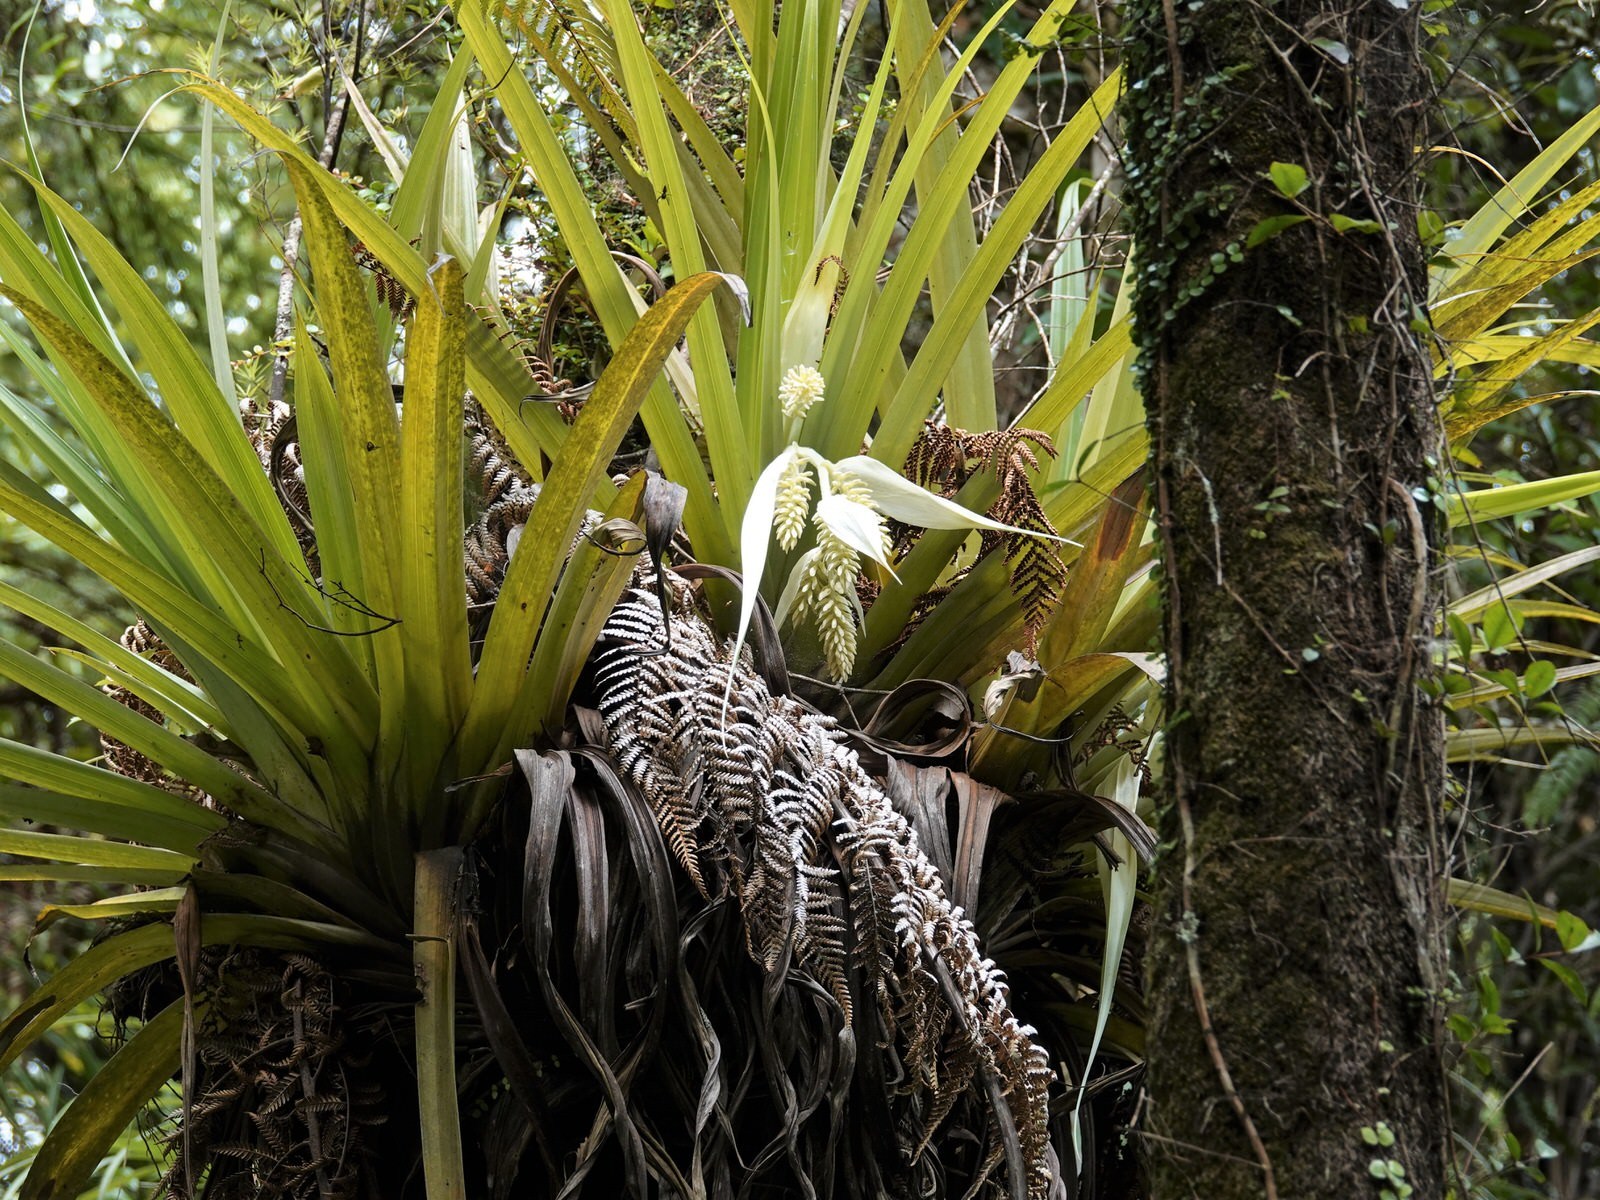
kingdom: Plantae
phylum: Tracheophyta
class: Liliopsida
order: Asparagales
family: Asteliaceae
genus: Astelia
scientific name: Astelia hastata
